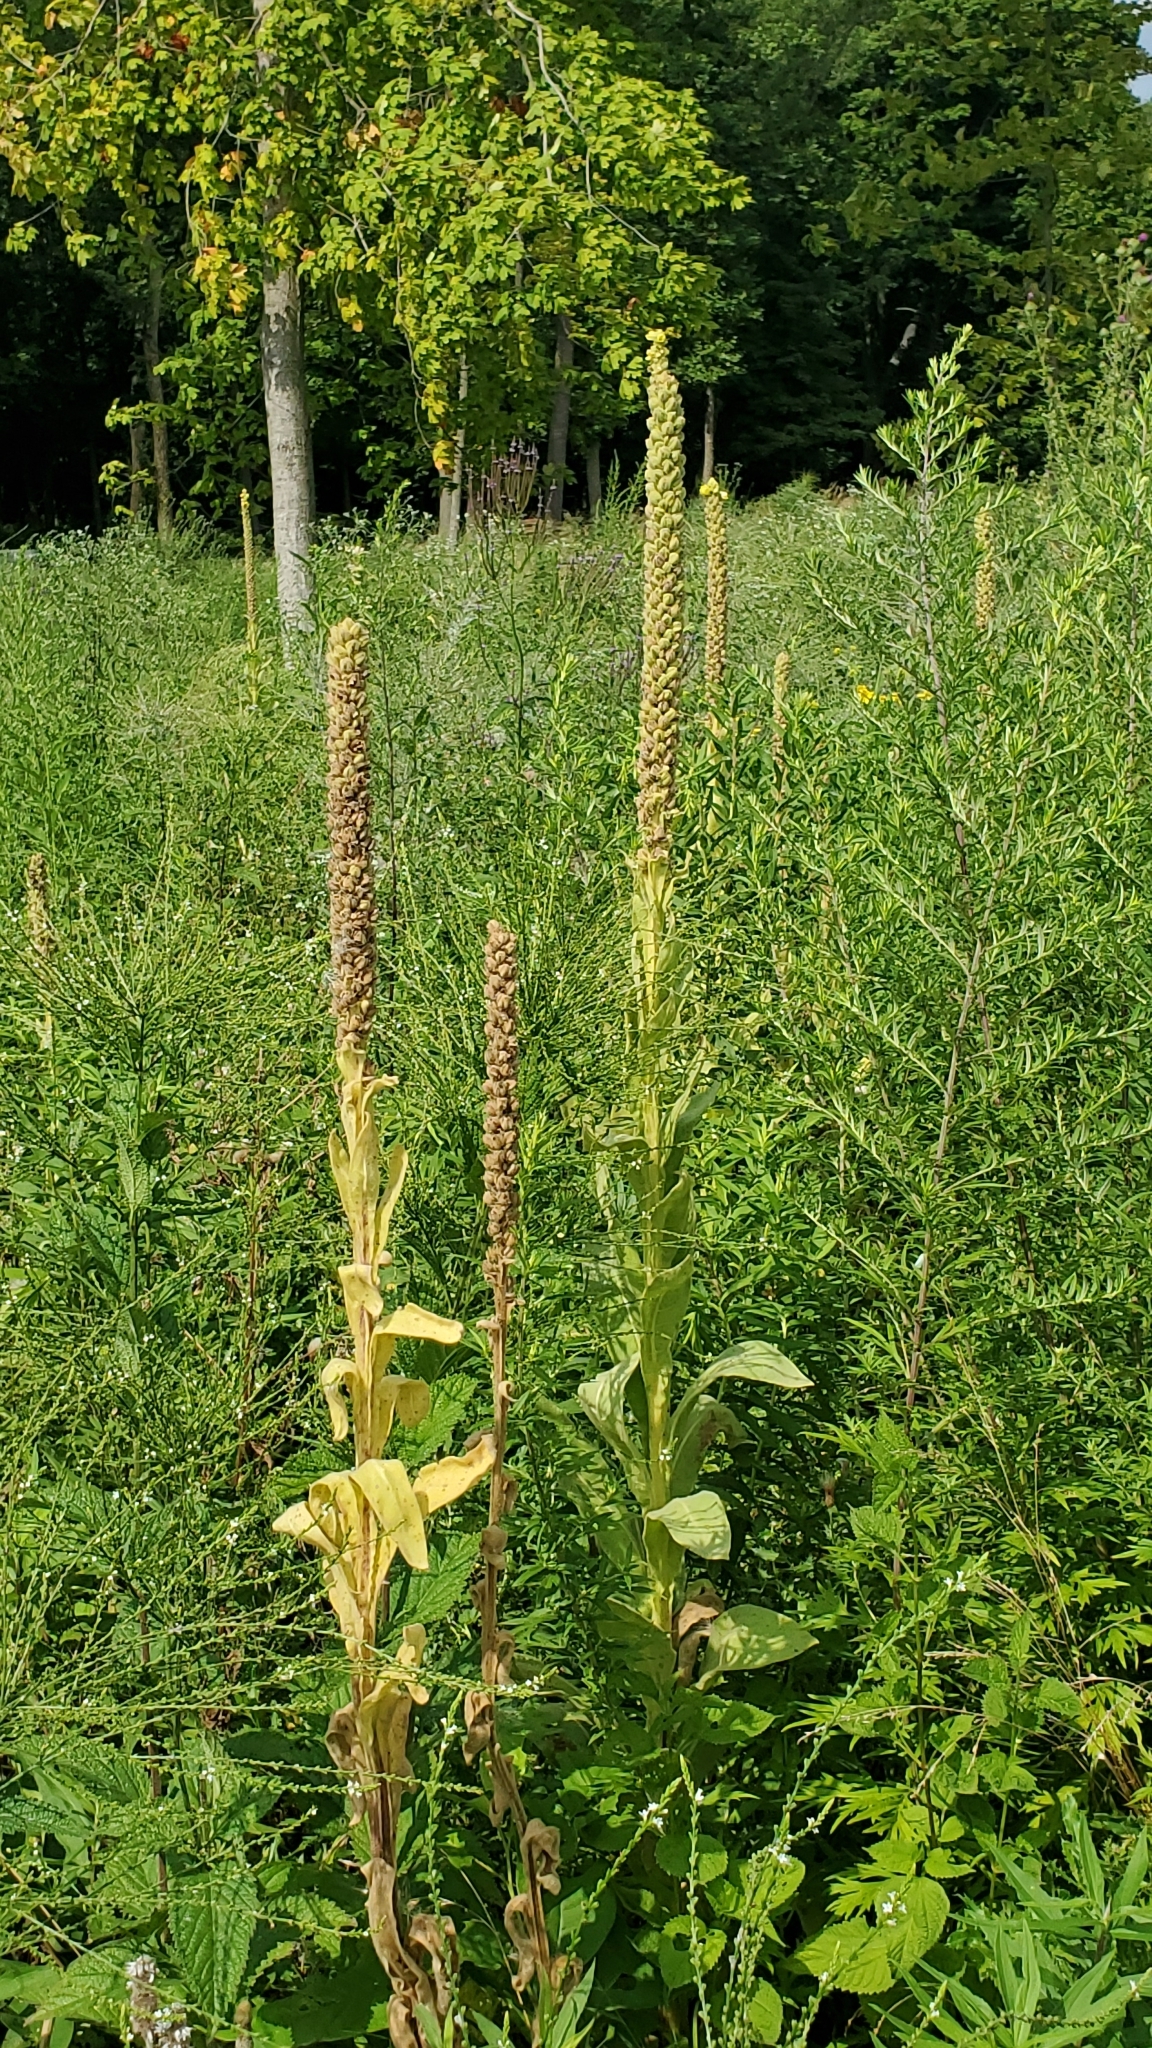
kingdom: Plantae
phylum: Tracheophyta
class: Magnoliopsida
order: Lamiales
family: Scrophulariaceae
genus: Verbascum
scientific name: Verbascum thapsus
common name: Common mullein
